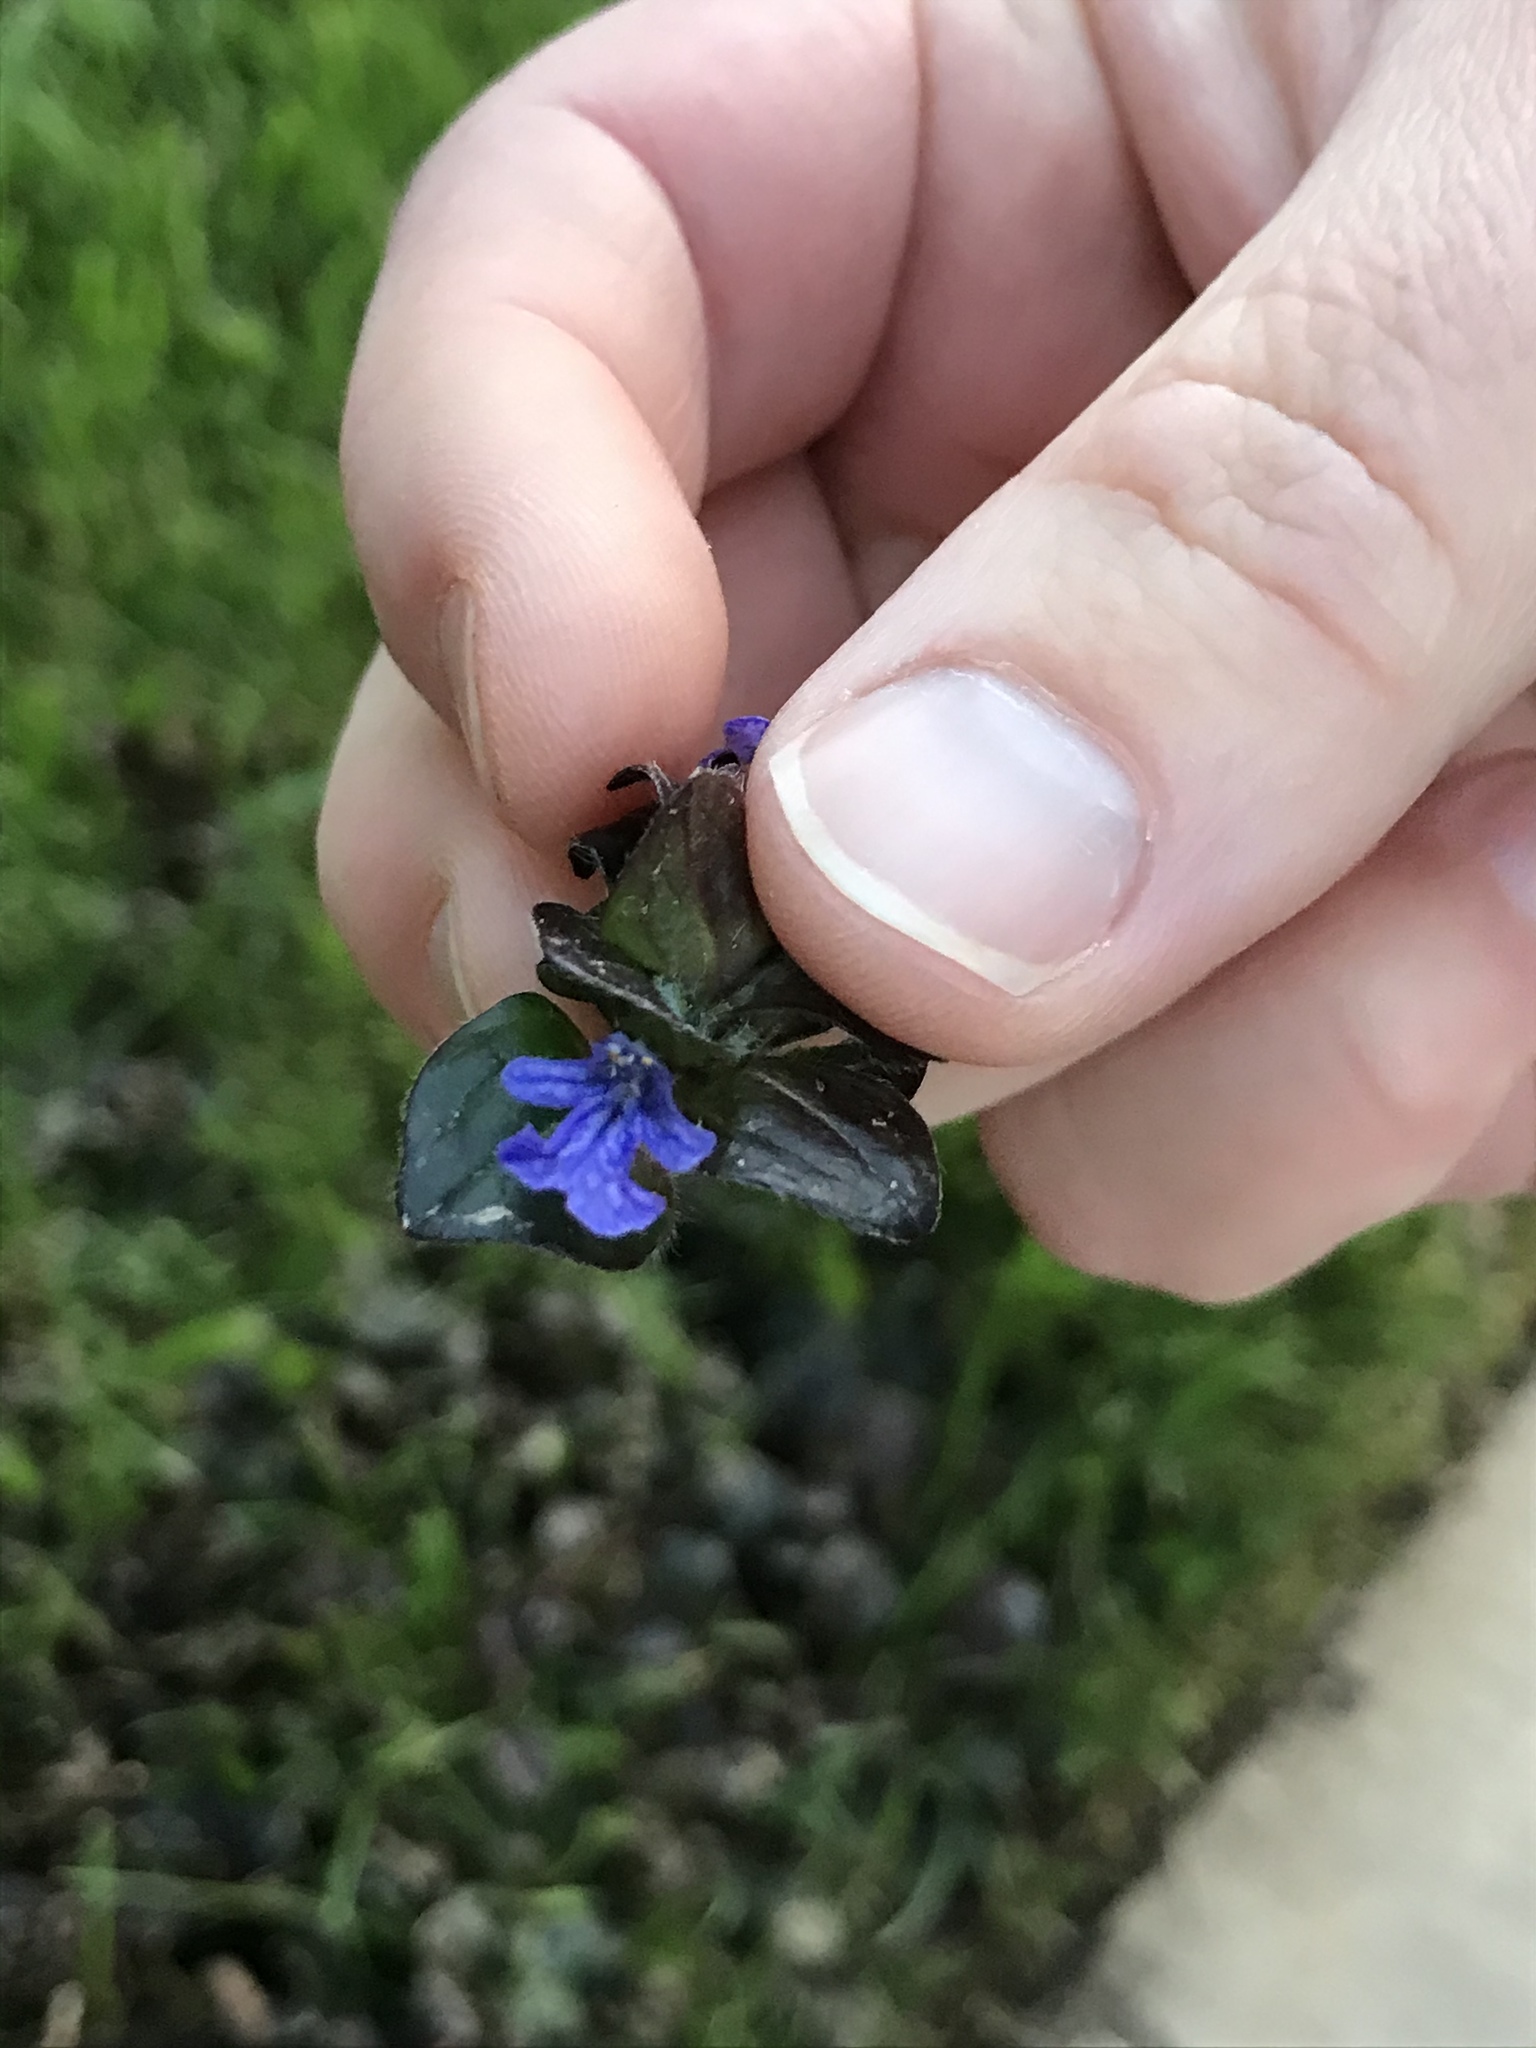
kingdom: Plantae
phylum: Tracheophyta
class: Magnoliopsida
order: Lamiales
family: Lamiaceae
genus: Ajuga
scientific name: Ajuga reptans
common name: Bugle
